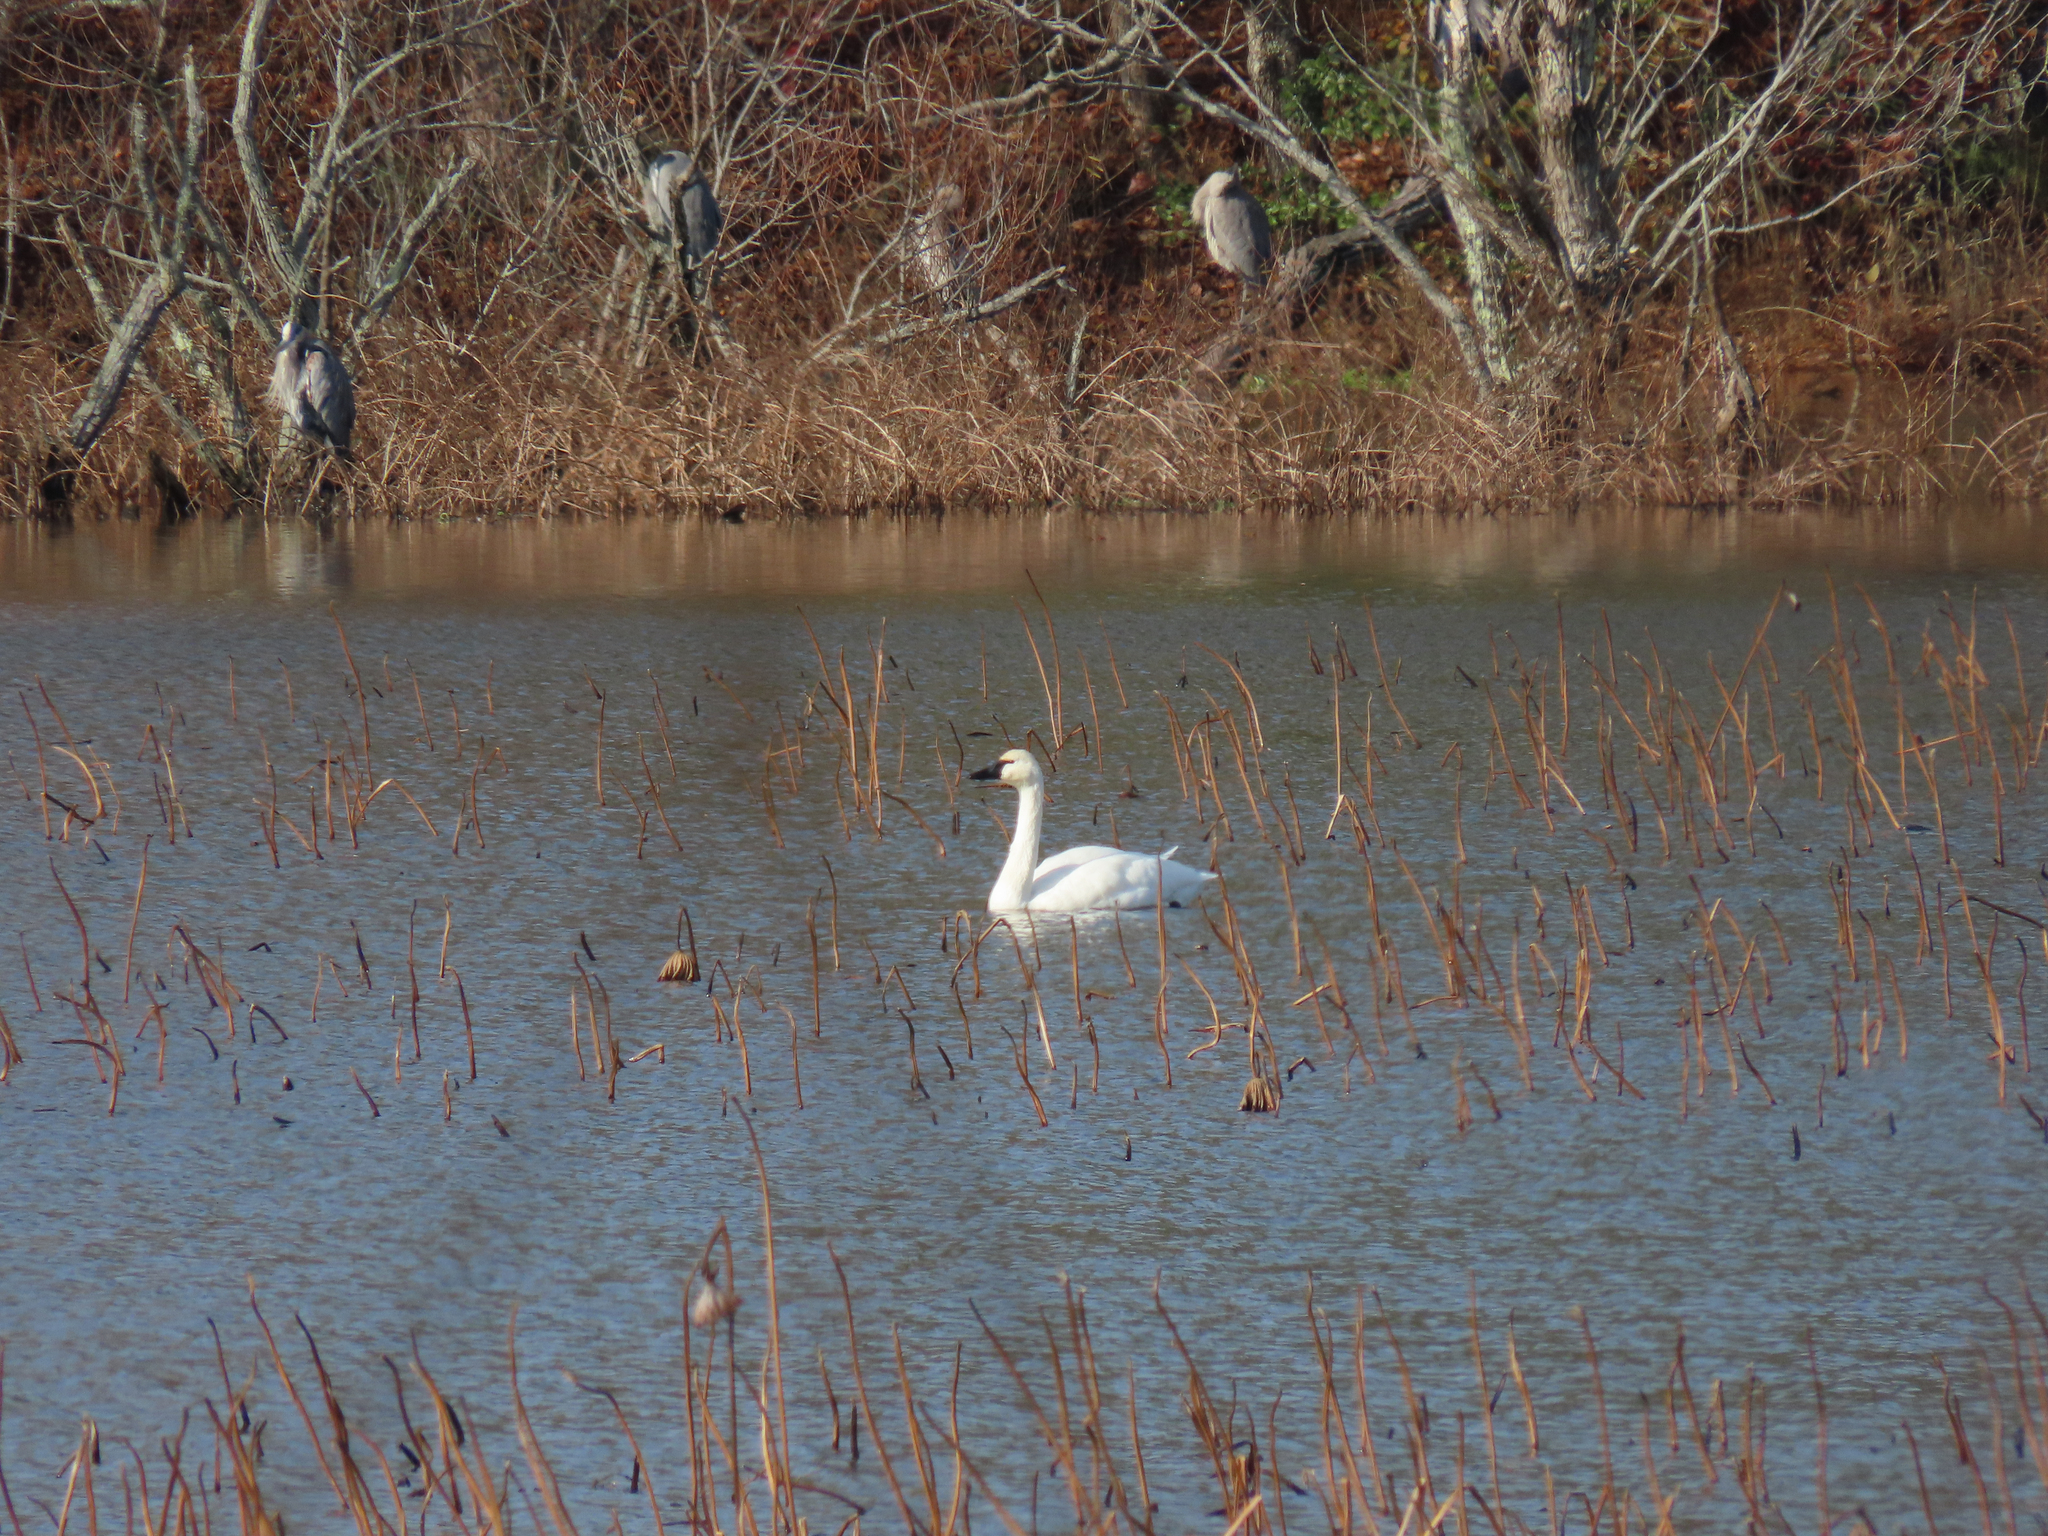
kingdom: Animalia
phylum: Chordata
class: Aves
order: Anseriformes
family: Anatidae
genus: Cygnus
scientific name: Cygnus columbianus
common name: Tundra swan
